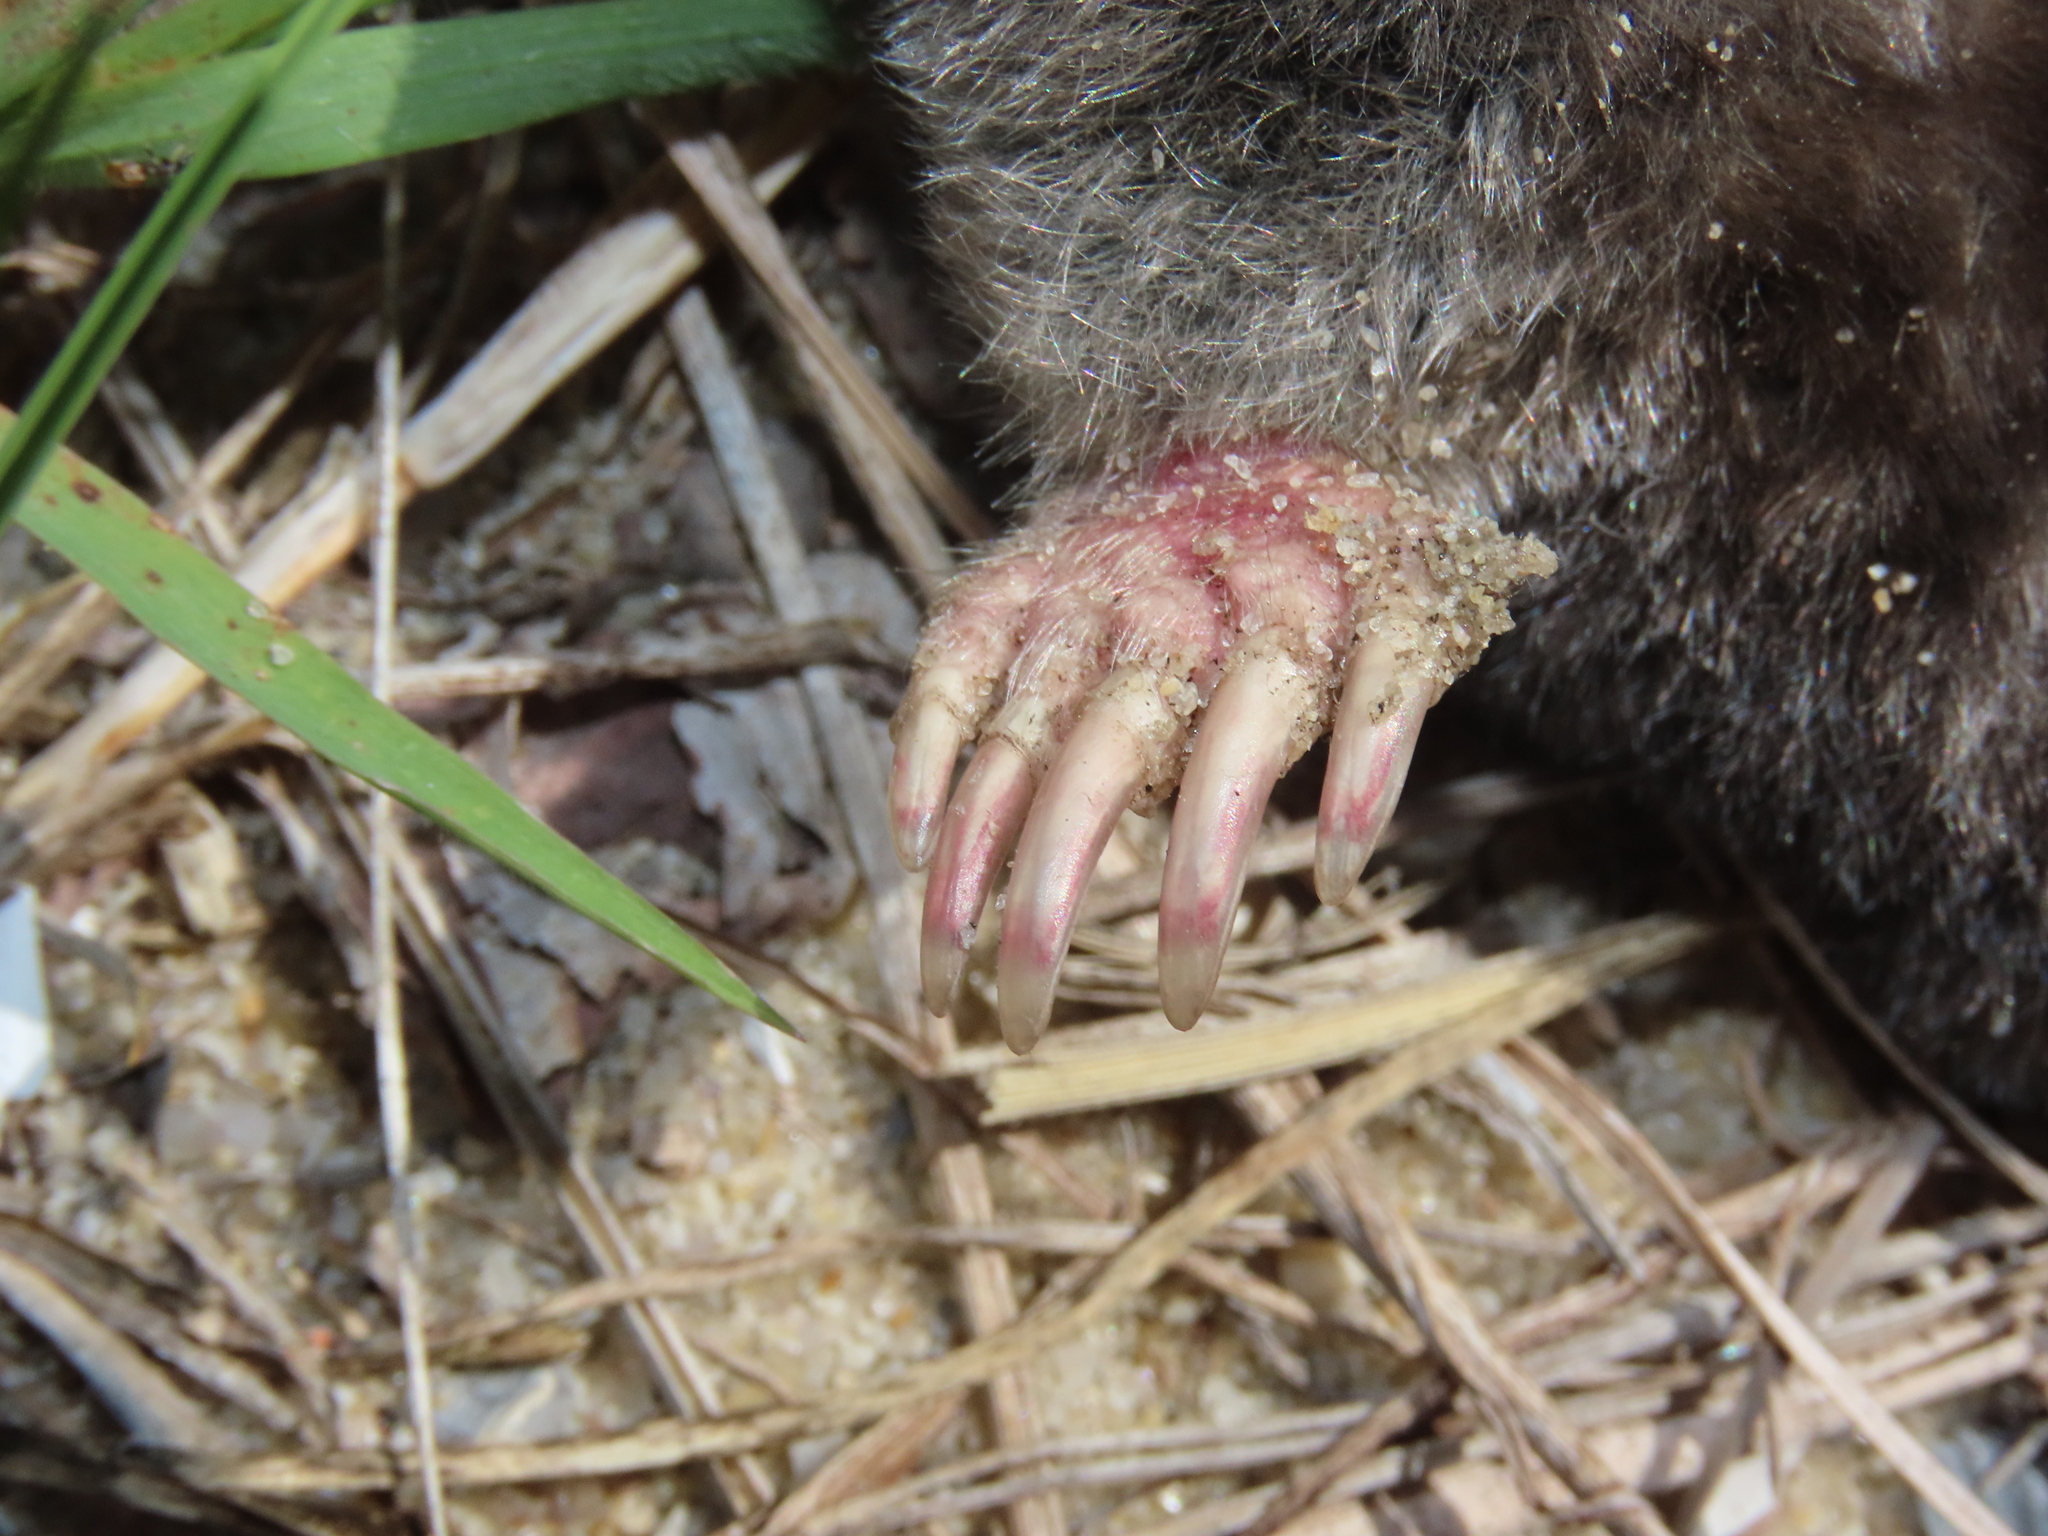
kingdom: Animalia
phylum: Chordata
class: Mammalia
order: Soricomorpha
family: Talpidae
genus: Scalopus
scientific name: Scalopus aquaticus
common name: Eastern mole
